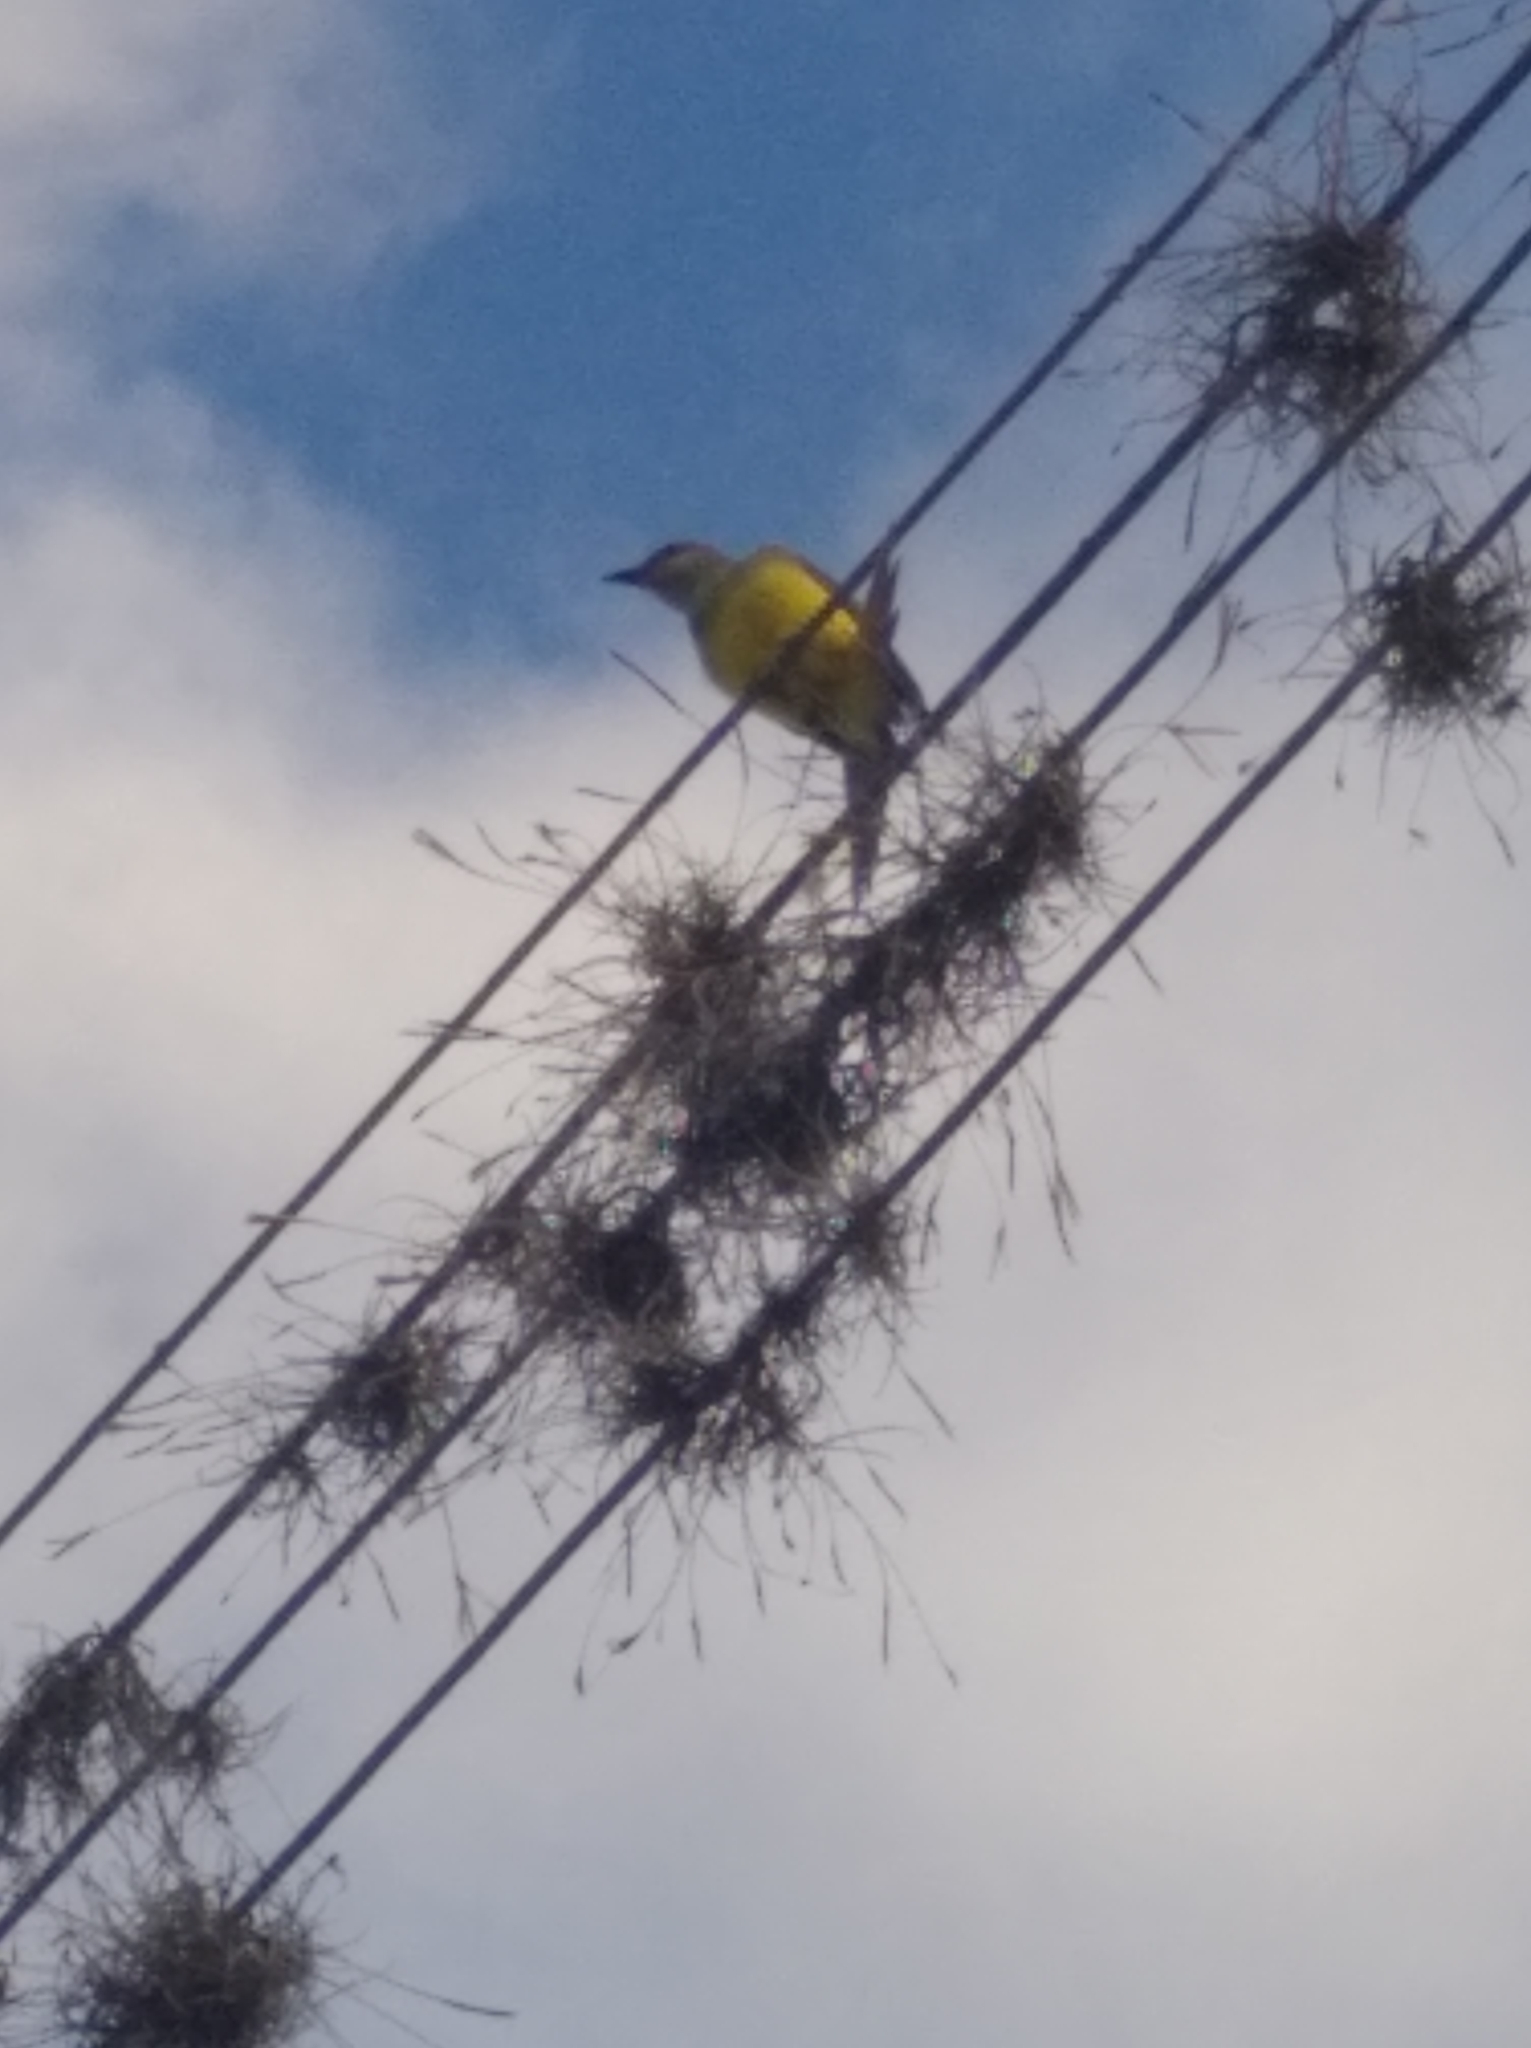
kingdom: Animalia
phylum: Chordata
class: Aves
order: Passeriformes
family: Tyrannidae
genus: Tyrannus
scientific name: Tyrannus melancholicus
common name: Tropical kingbird
